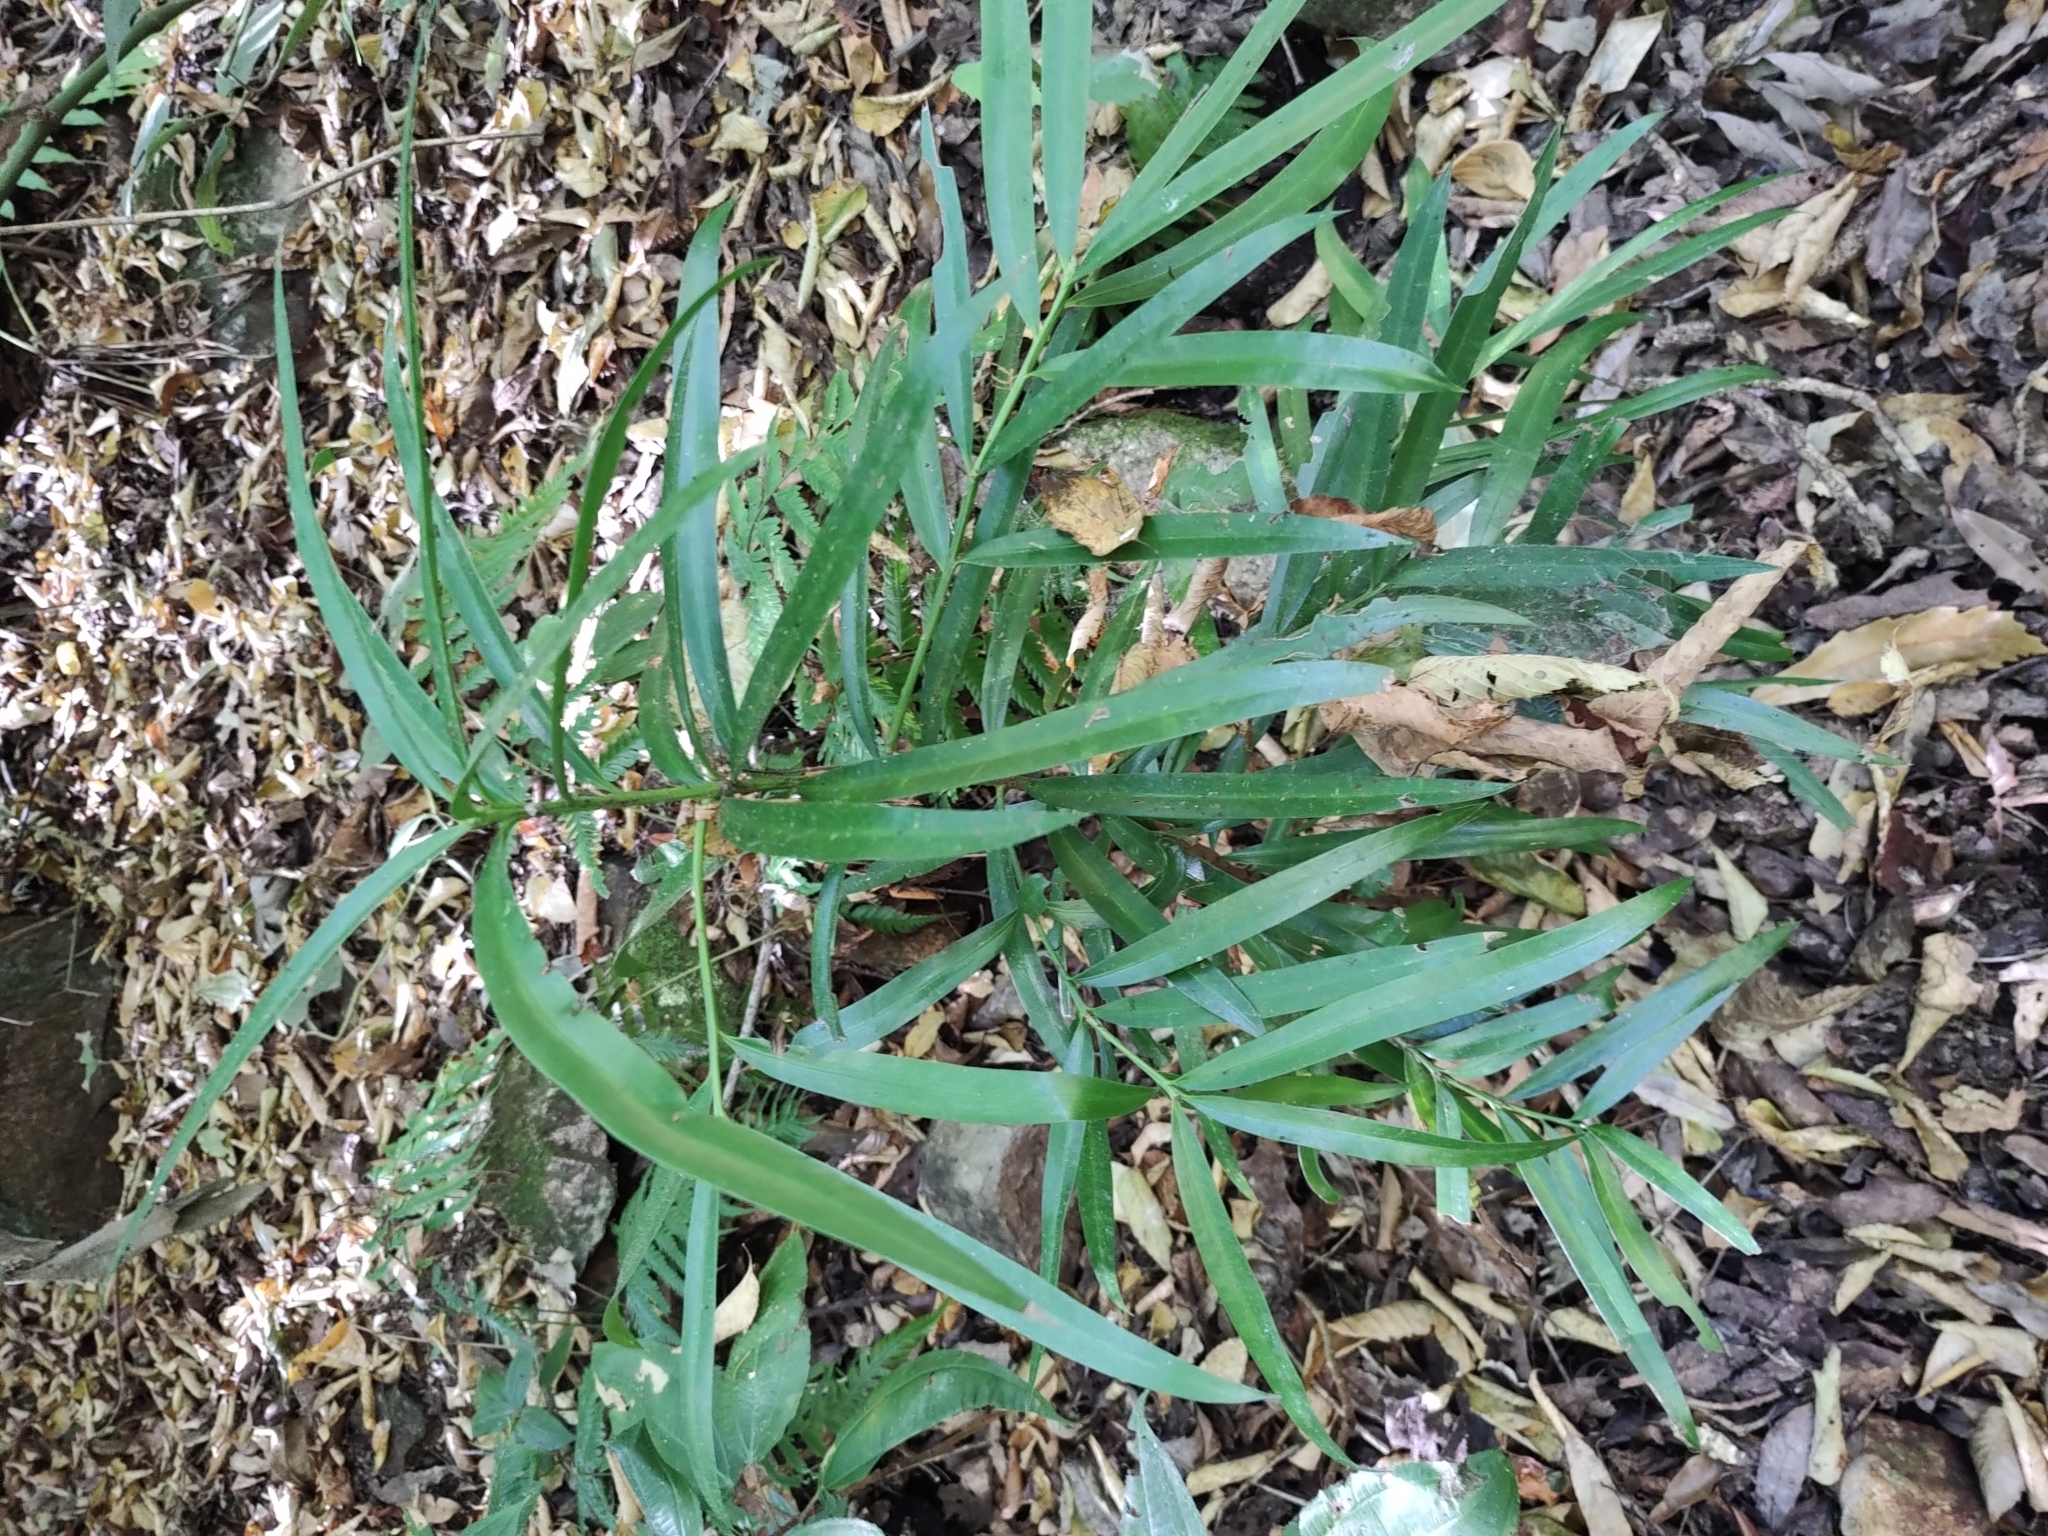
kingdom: Plantae
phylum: Tracheophyta
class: Pinopsida
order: Pinales
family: Podocarpaceae
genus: Podocarpus
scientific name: Podocarpus matudae
